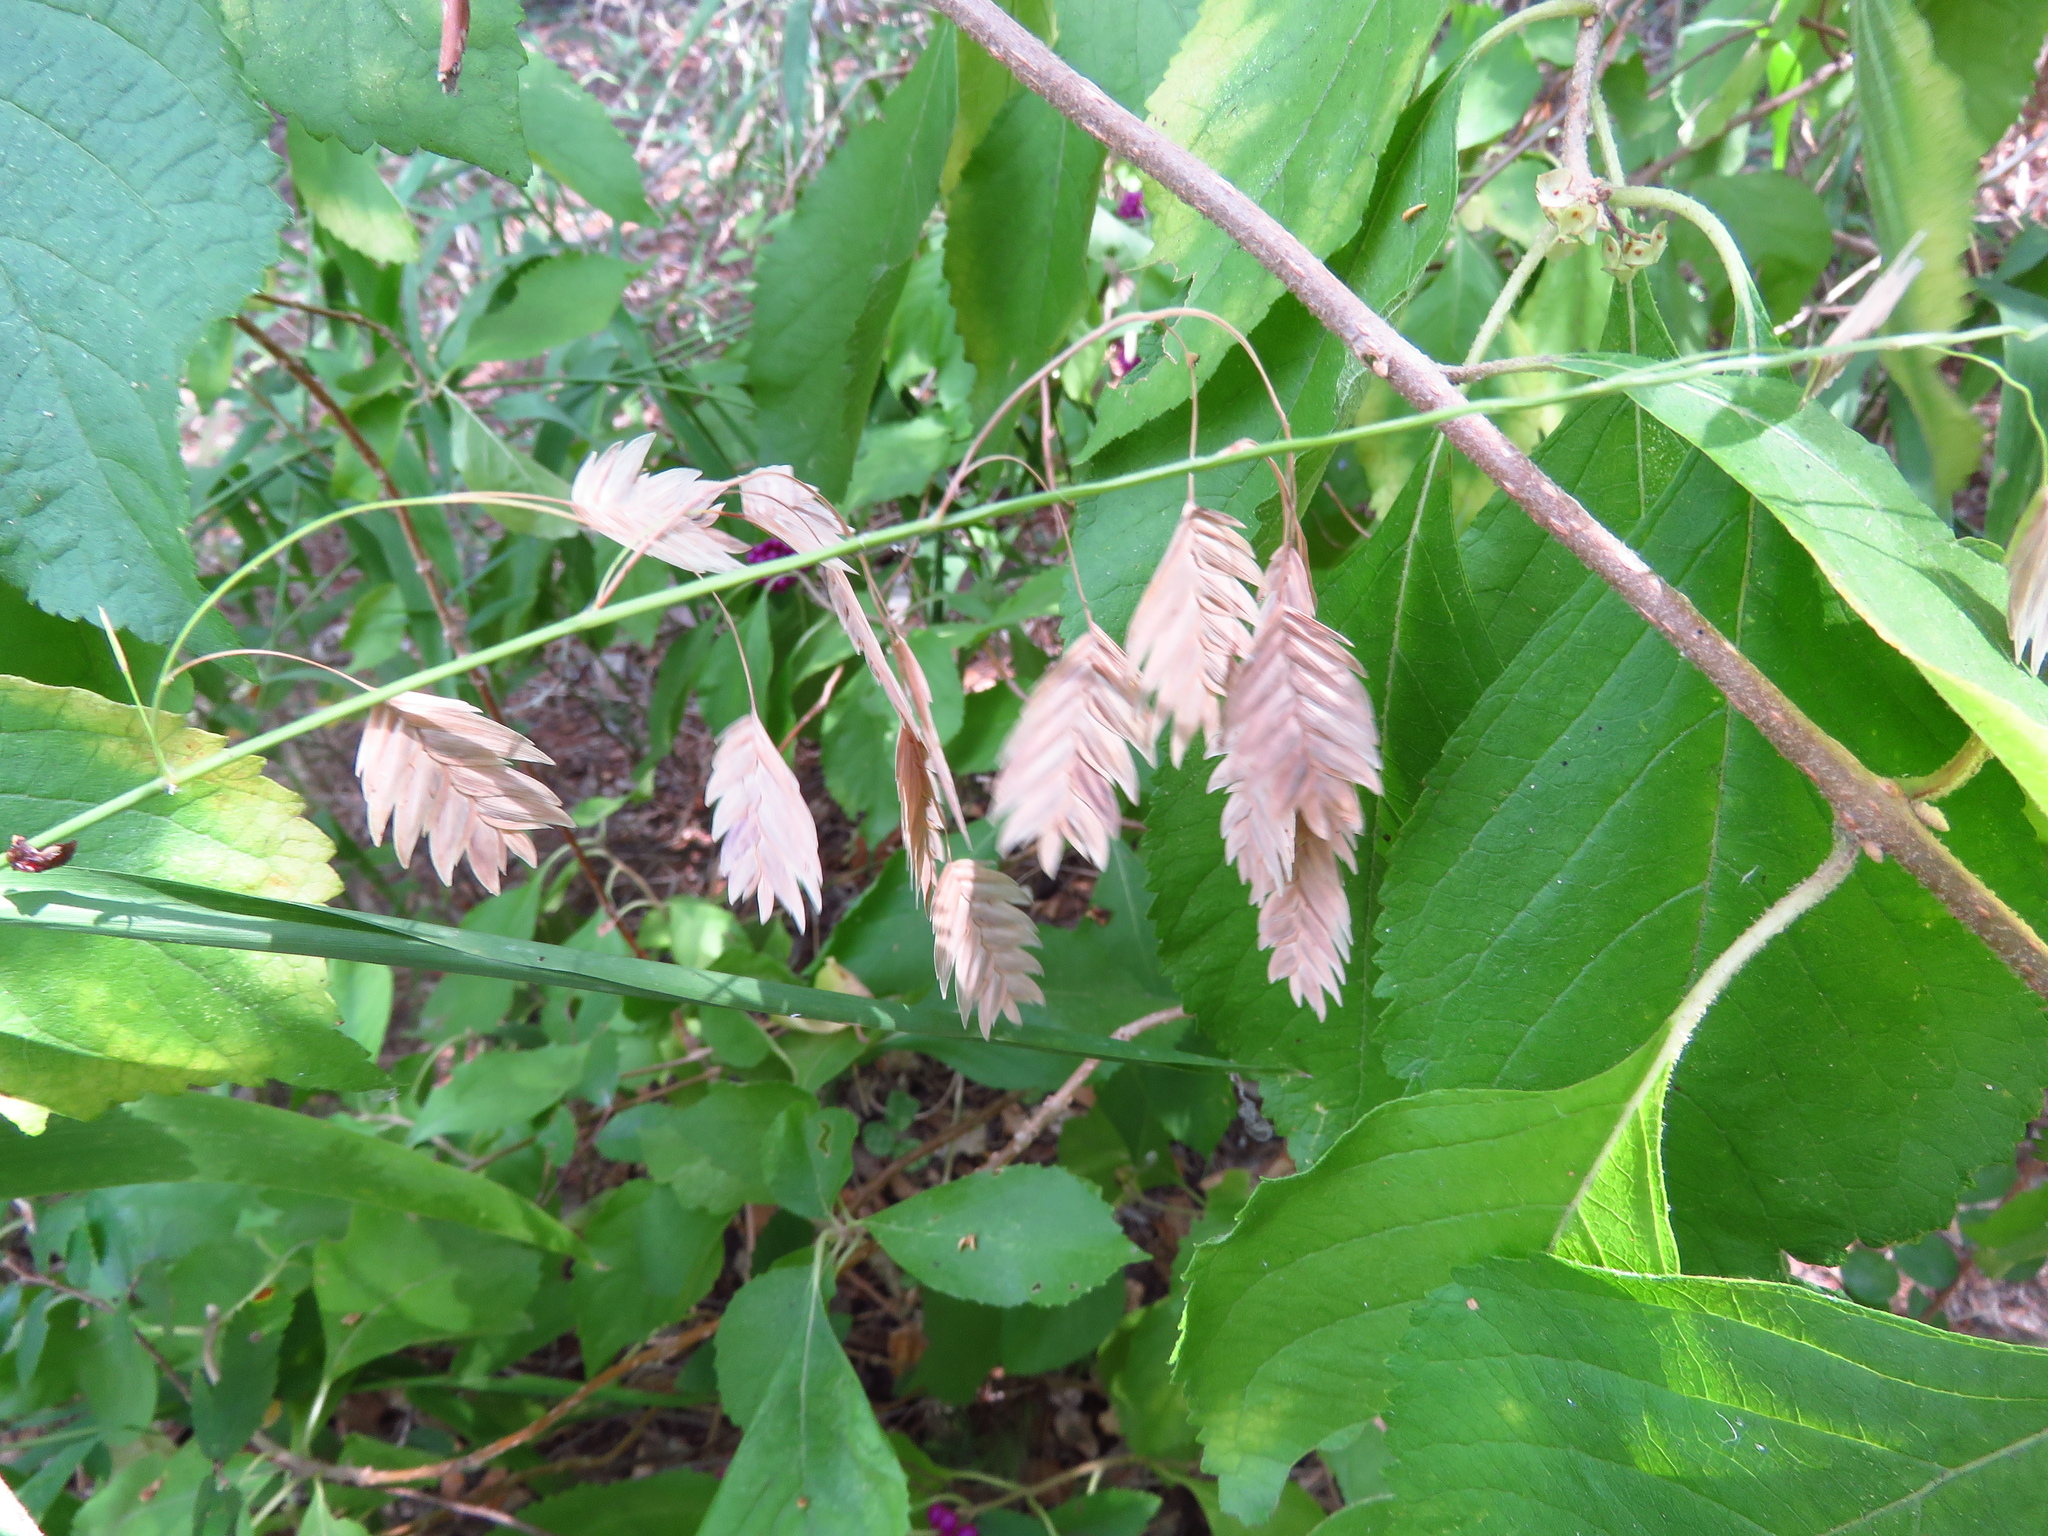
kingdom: Plantae
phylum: Tracheophyta
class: Liliopsida
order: Poales
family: Poaceae
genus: Chasmanthium
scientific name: Chasmanthium latifolium
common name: Broad-leaved chasmanthium
